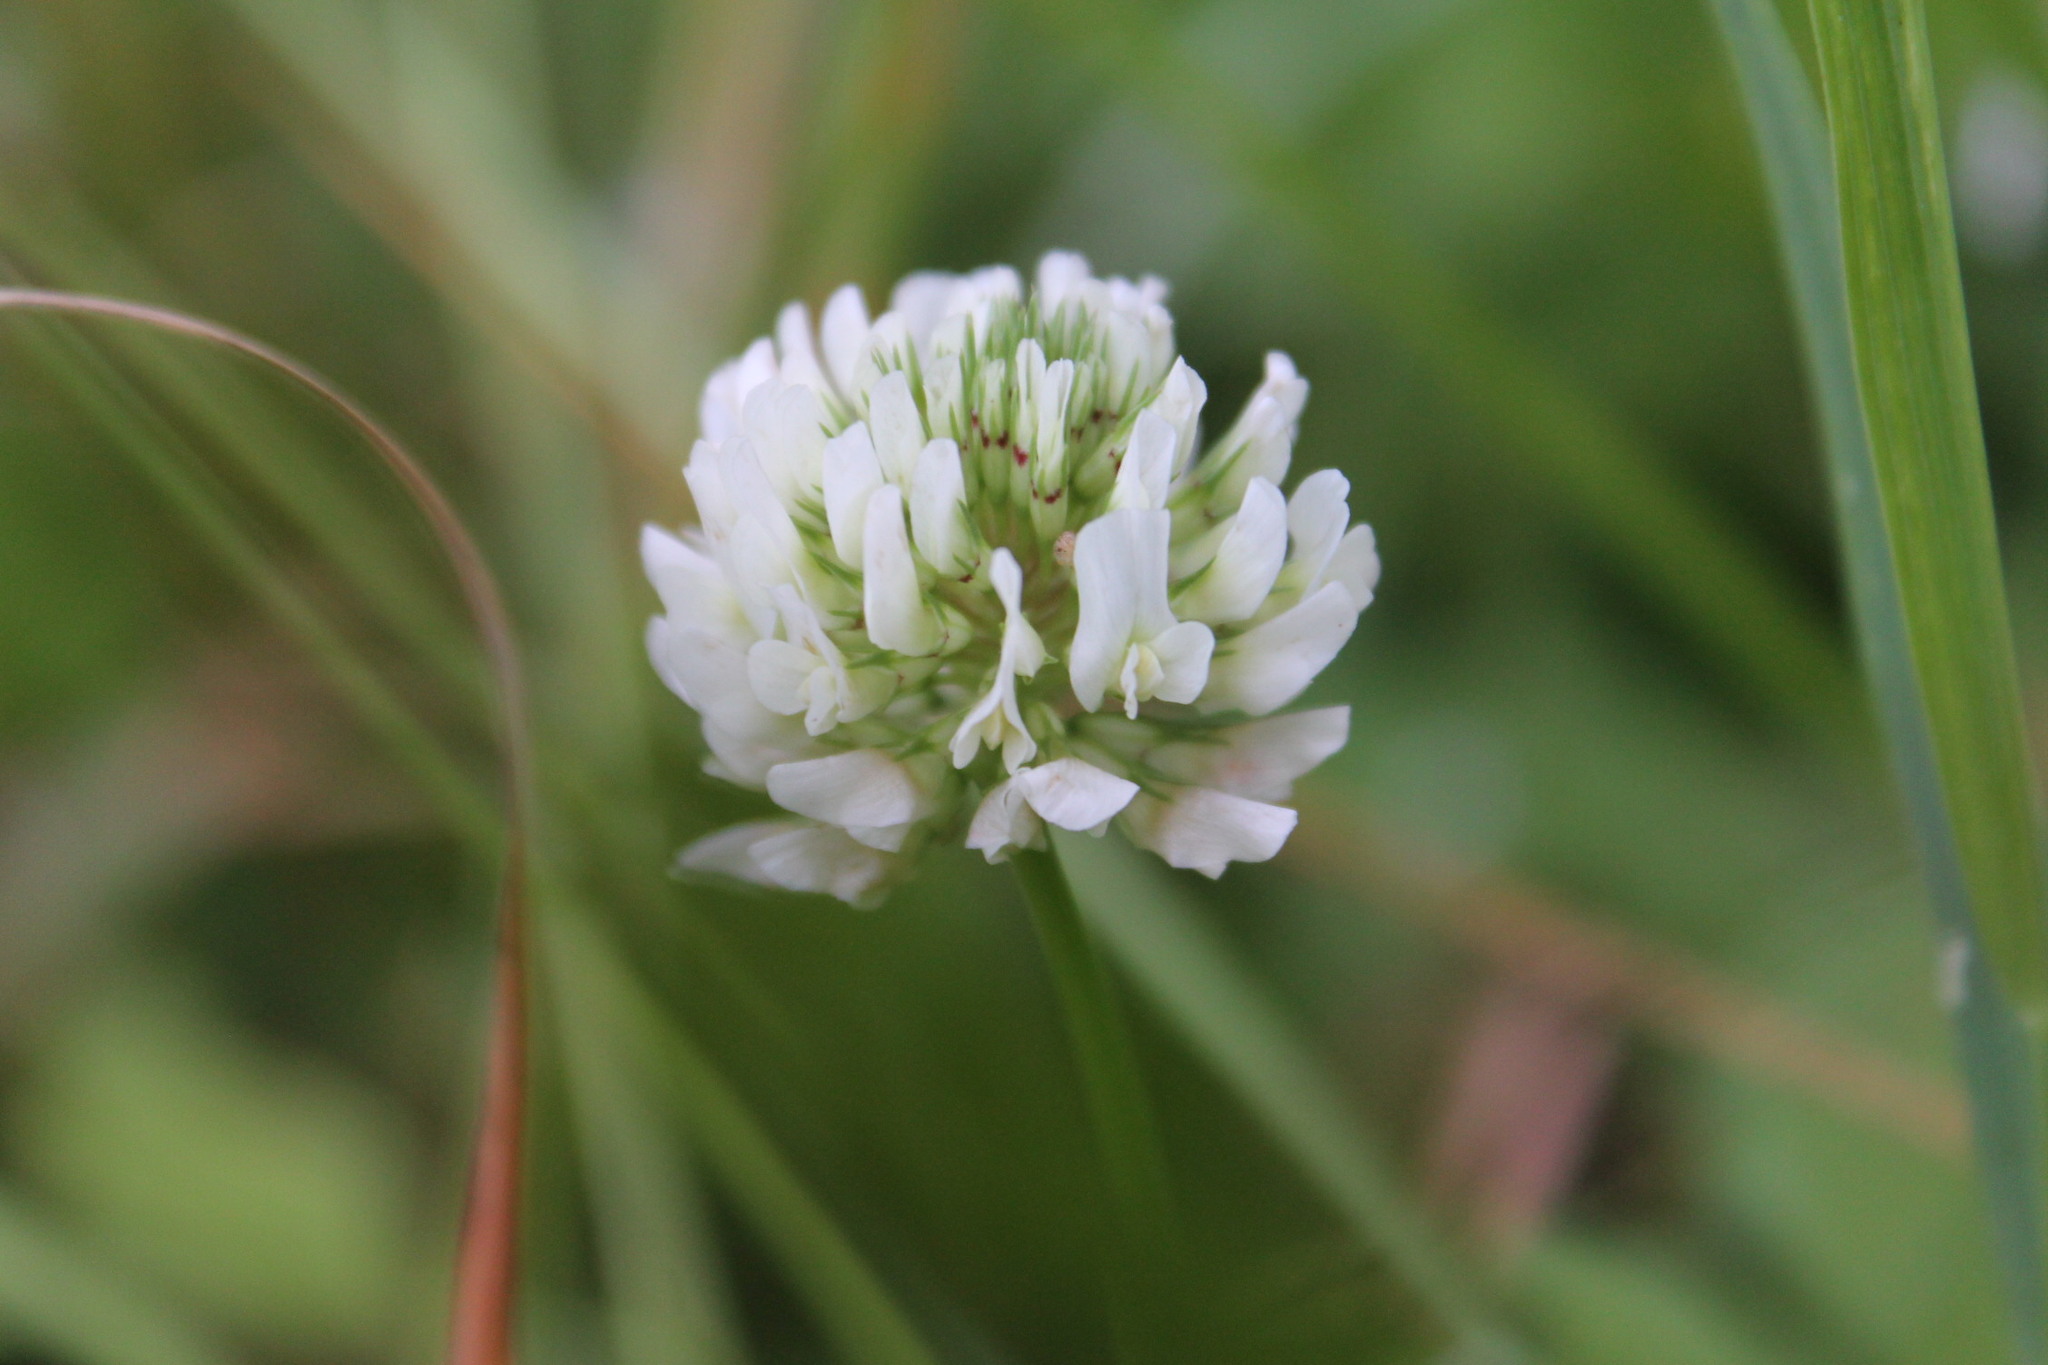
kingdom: Plantae
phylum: Tracheophyta
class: Magnoliopsida
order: Fabales
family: Fabaceae
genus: Trifolium
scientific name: Trifolium repens
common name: White clover
